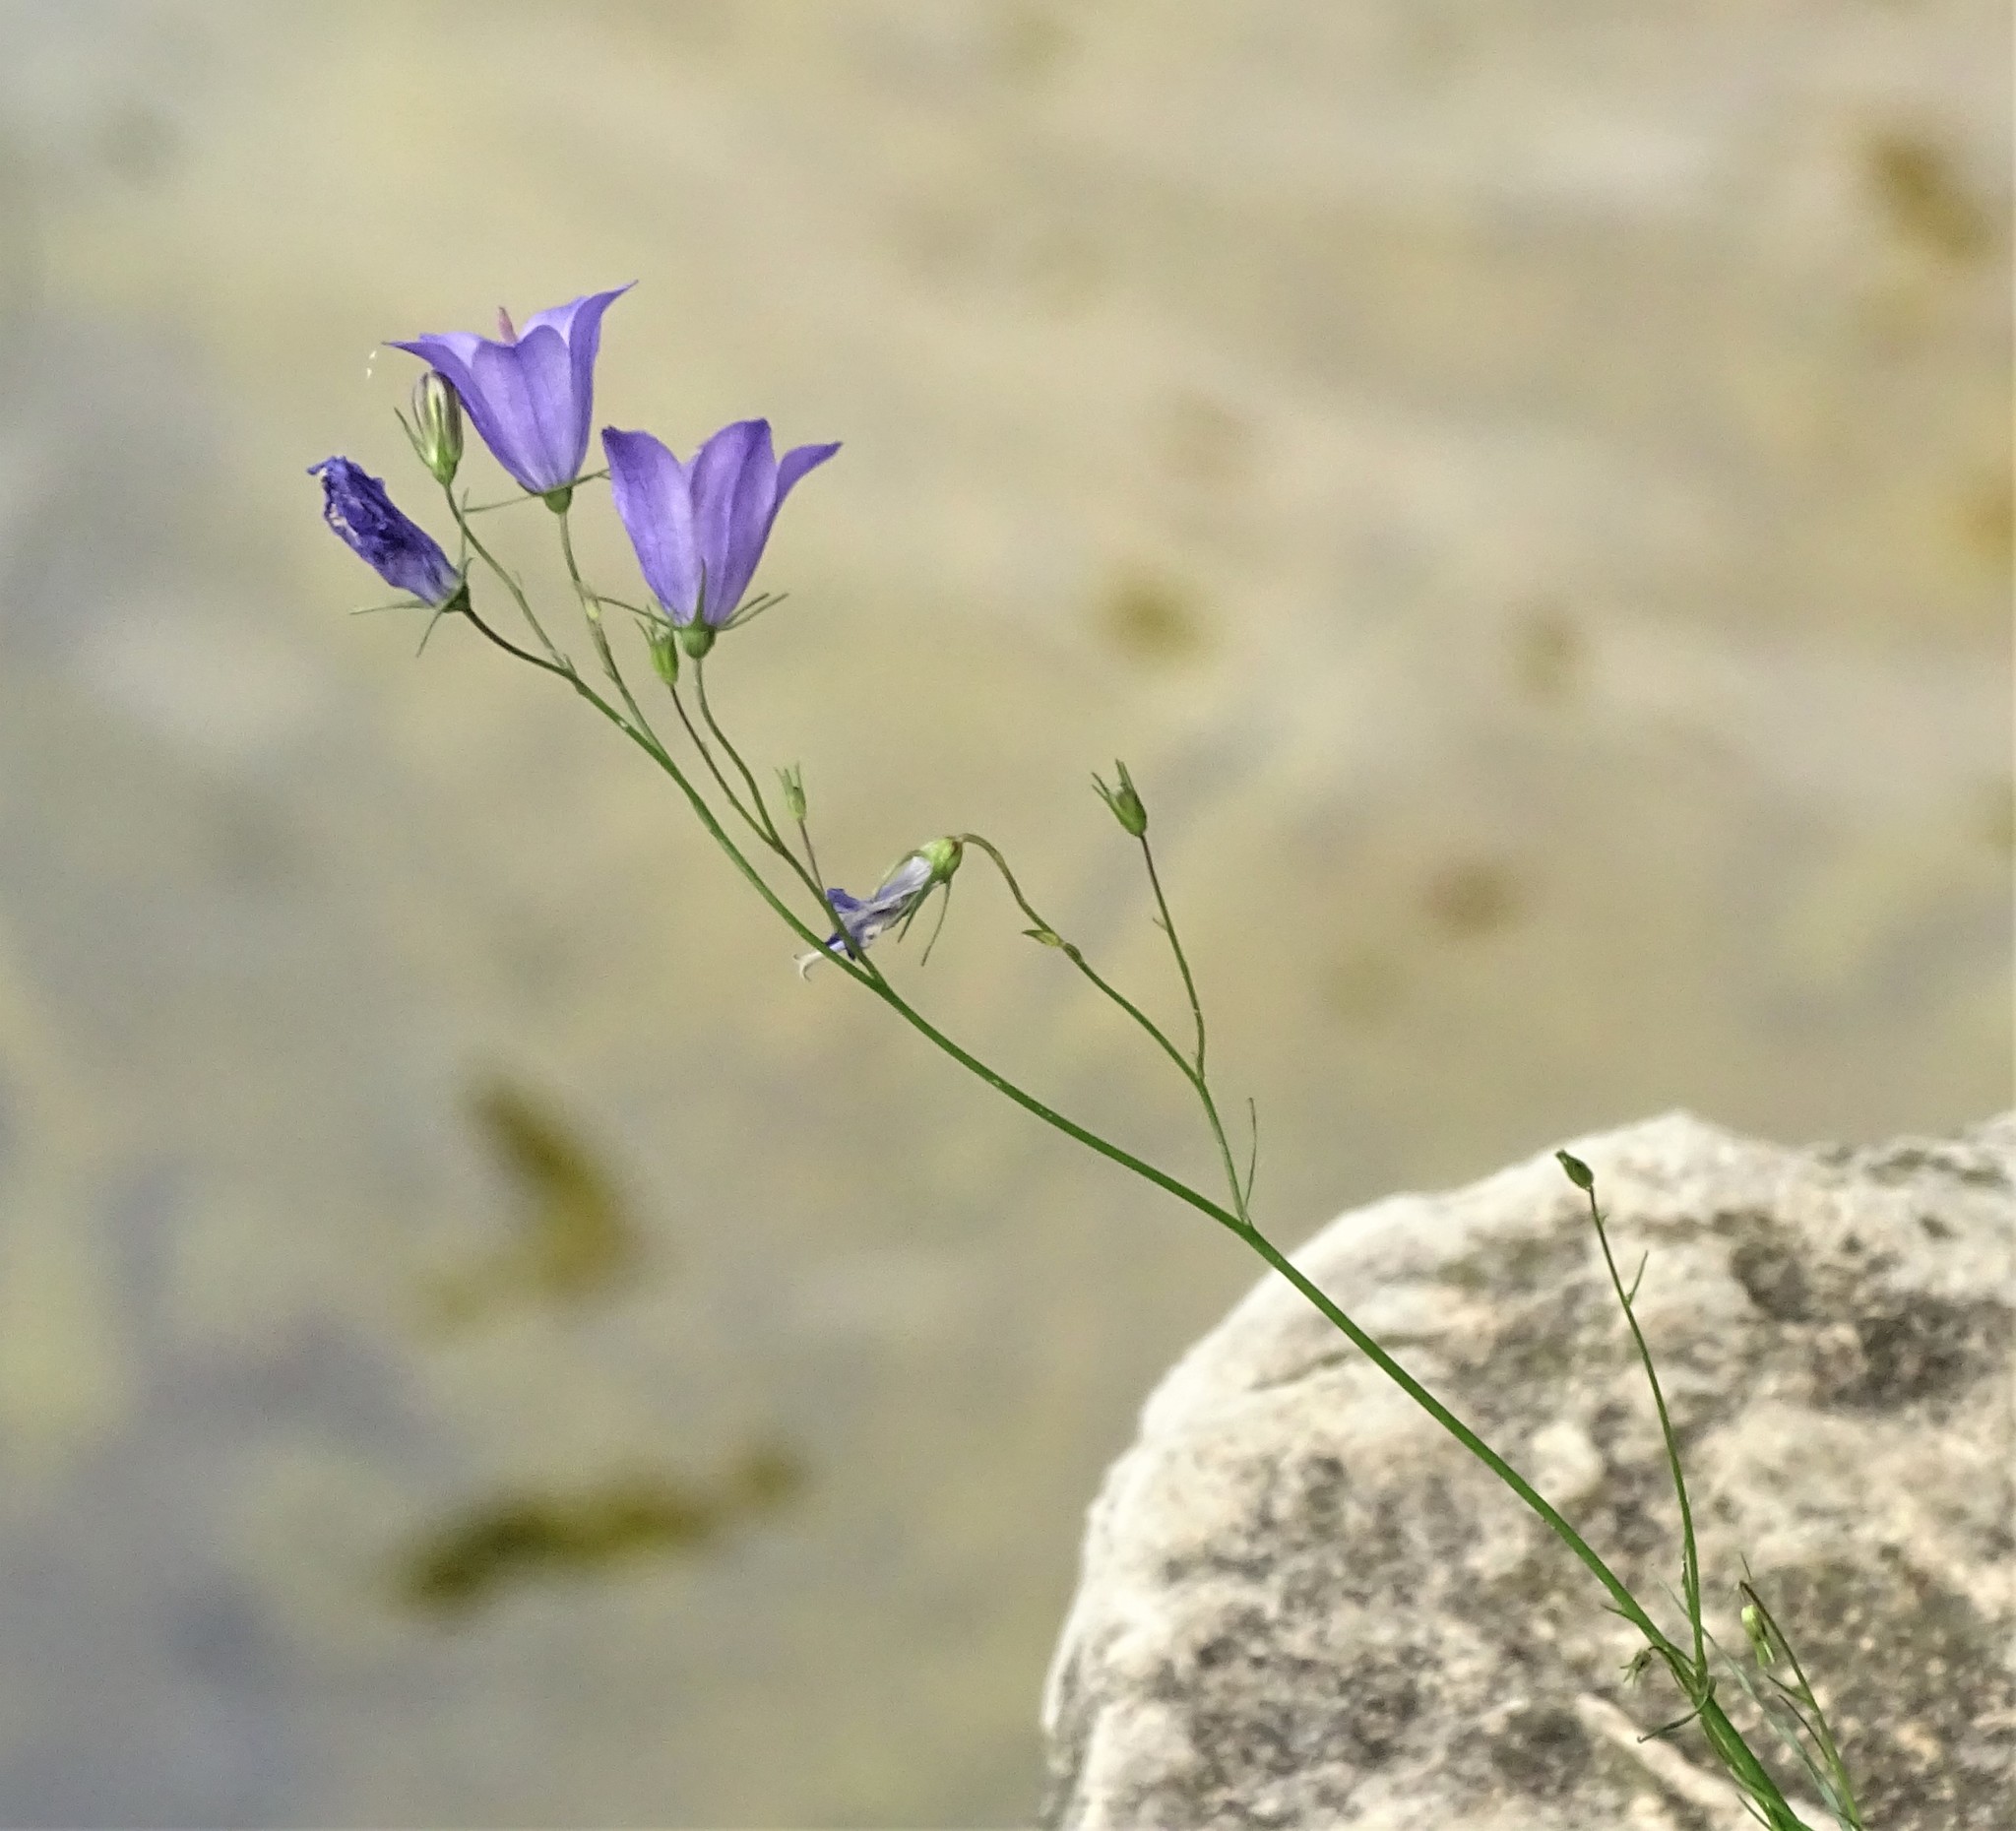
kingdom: Plantae
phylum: Tracheophyta
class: Magnoliopsida
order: Asterales
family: Campanulaceae
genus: Campanula
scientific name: Campanula intercedens
